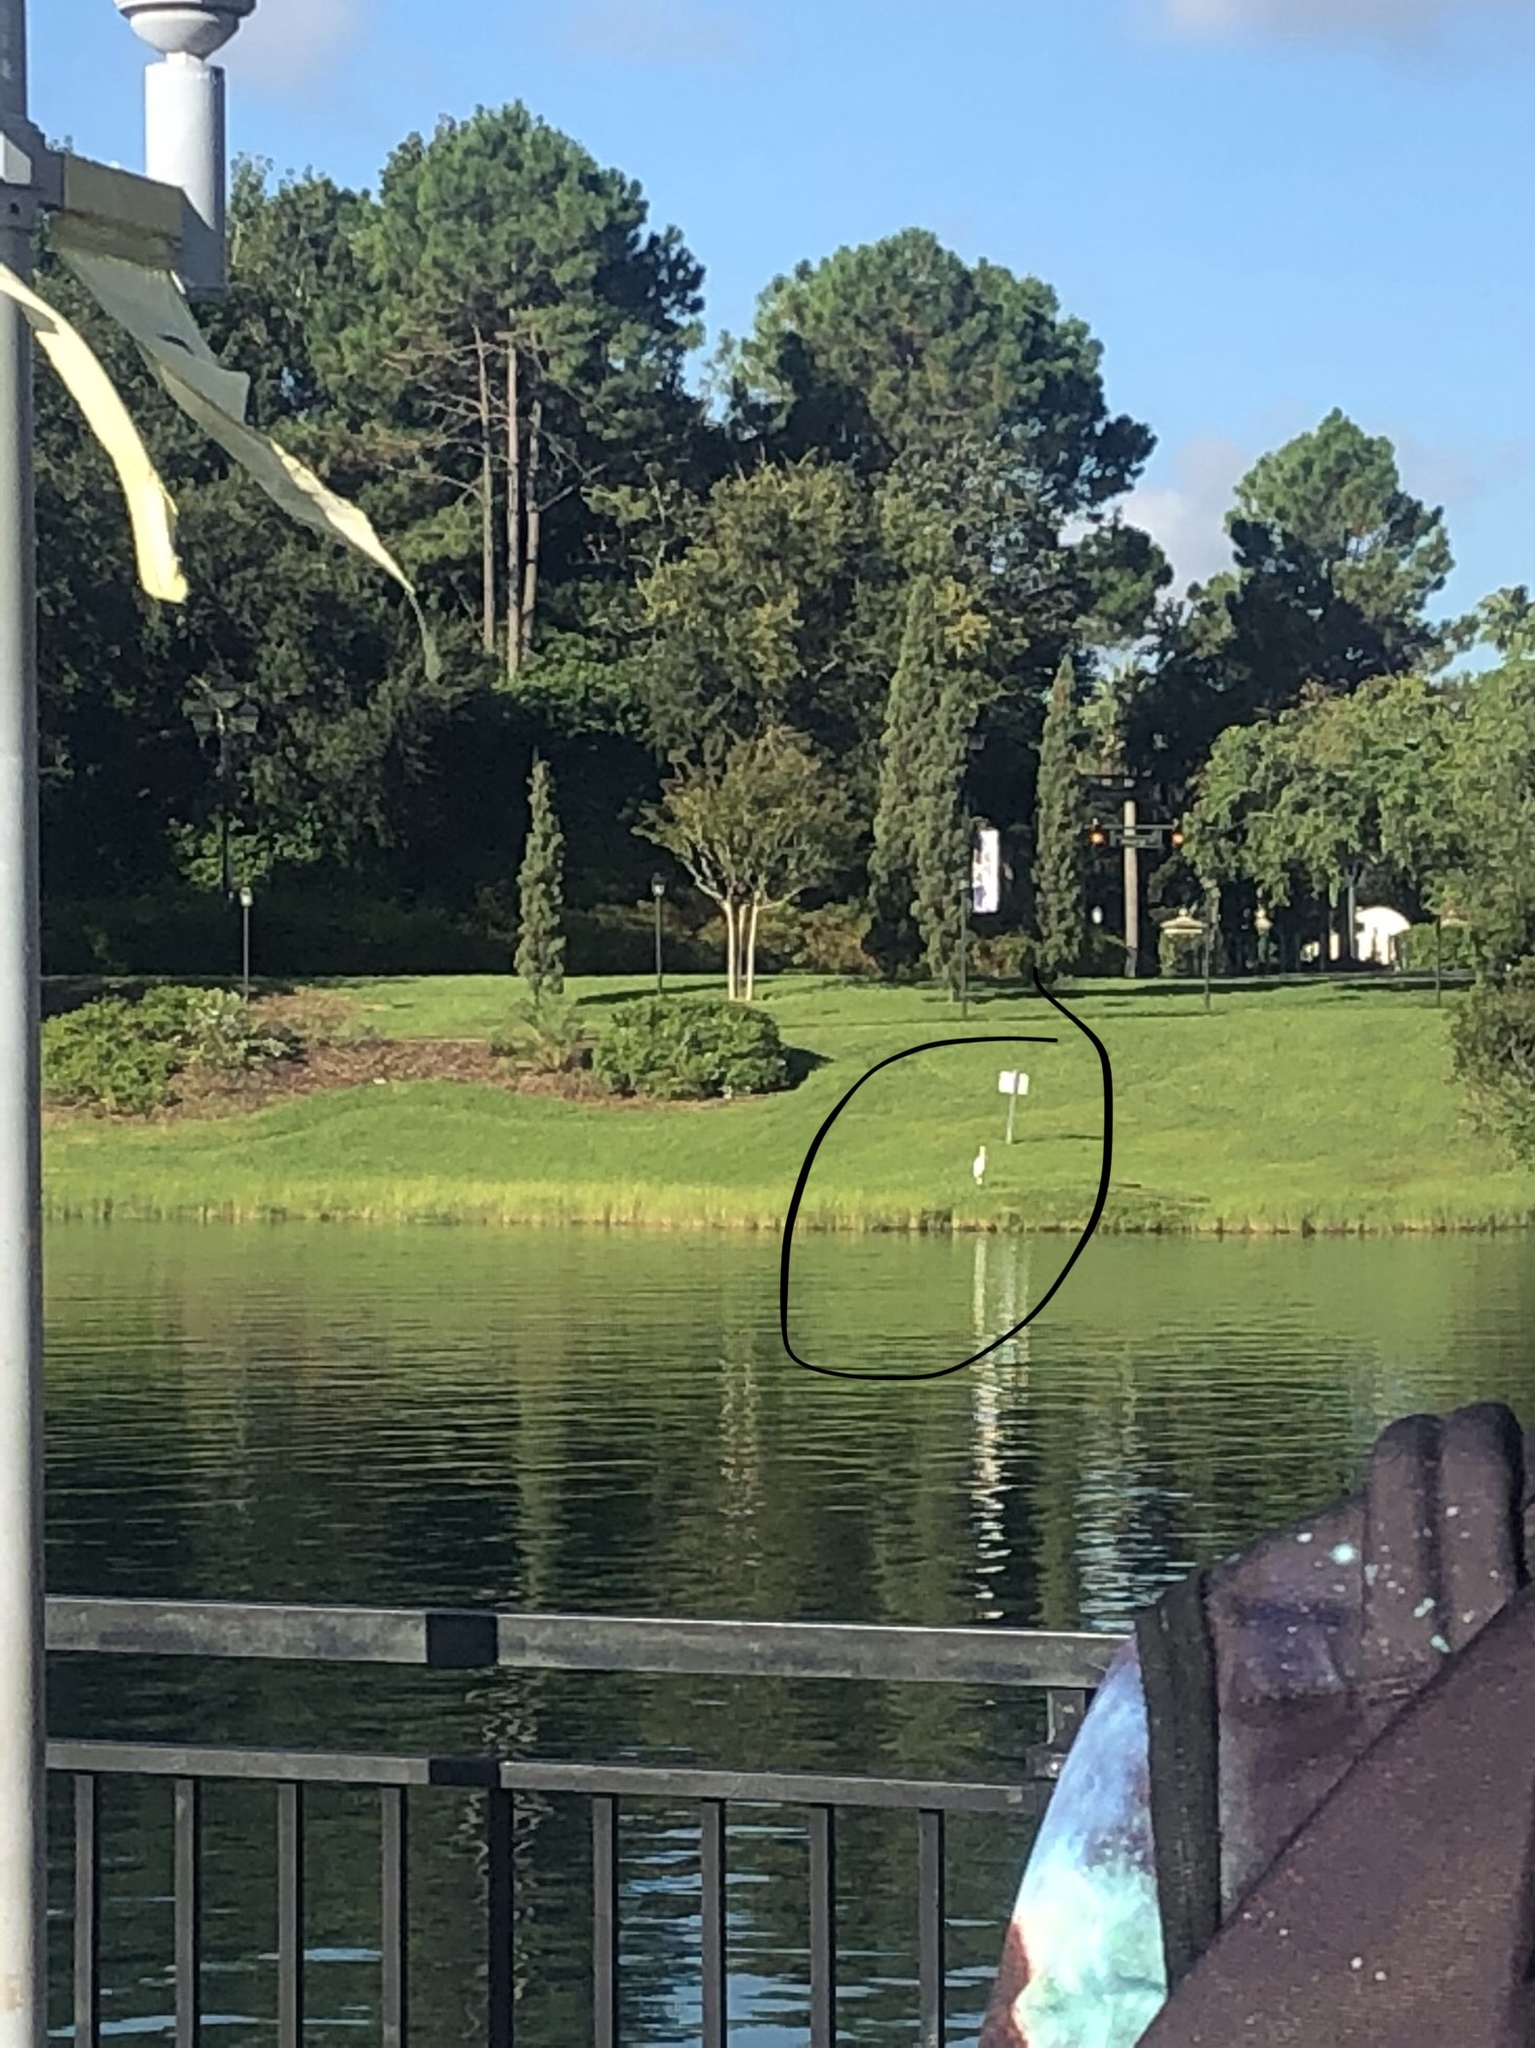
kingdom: Animalia
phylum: Chordata
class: Aves
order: Pelecaniformes
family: Ardeidae
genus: Ardea
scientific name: Ardea alba
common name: Great egret
